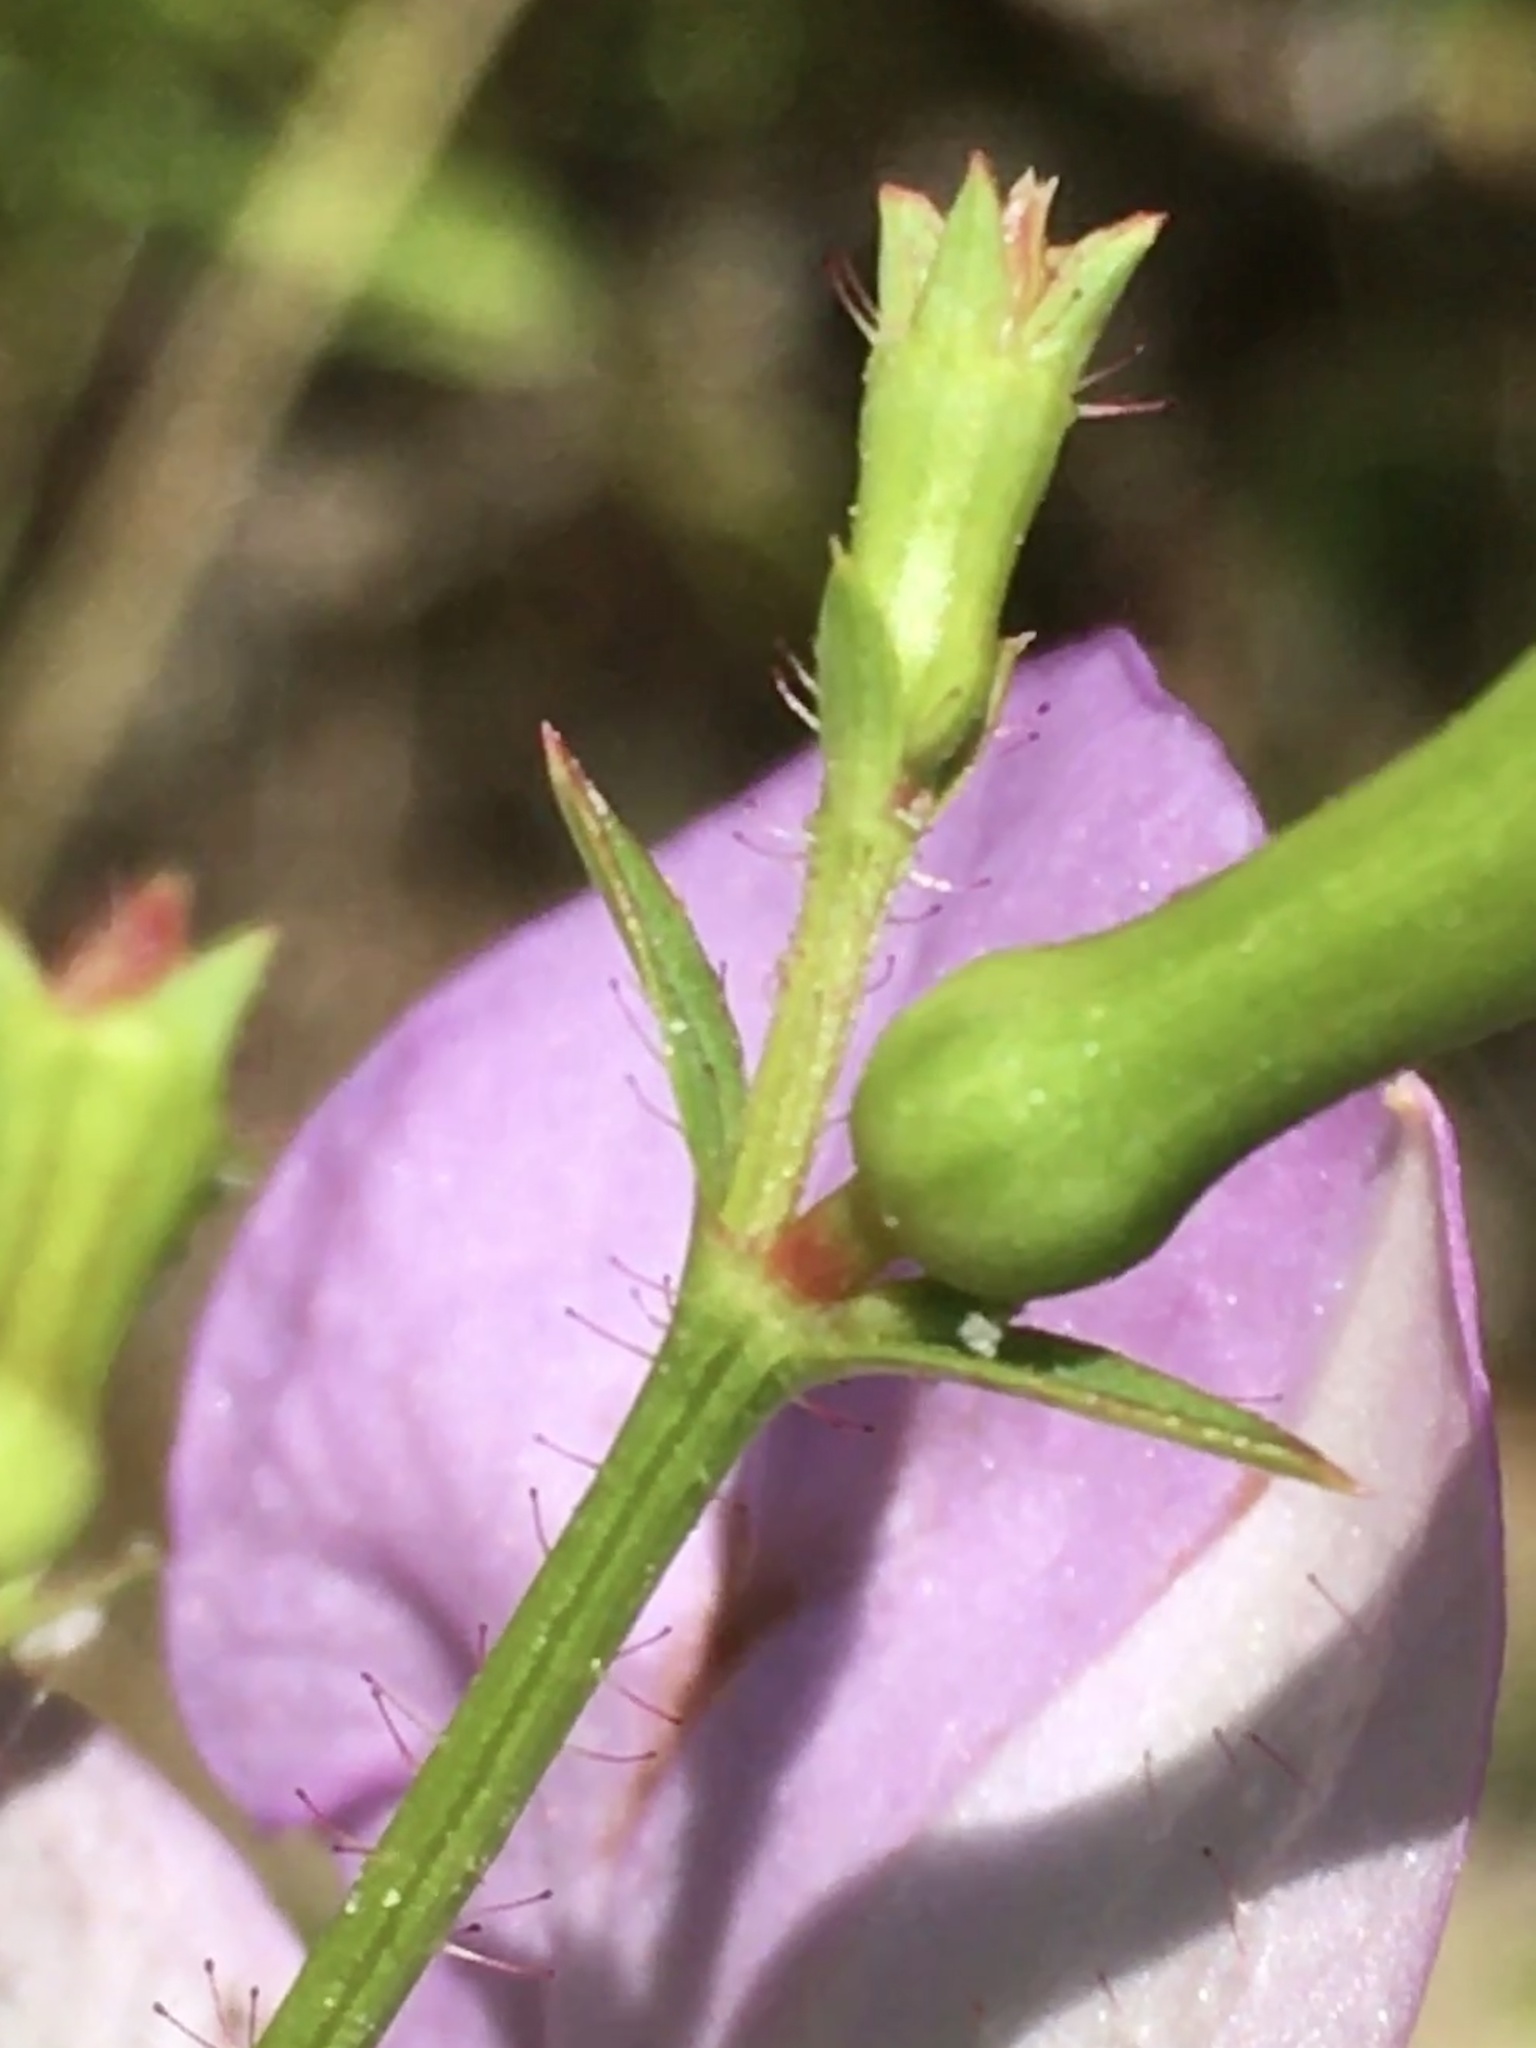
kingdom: Plantae
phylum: Tracheophyta
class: Magnoliopsida
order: Myrtales
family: Melastomataceae
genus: Rhexia
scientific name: Rhexia nashii
